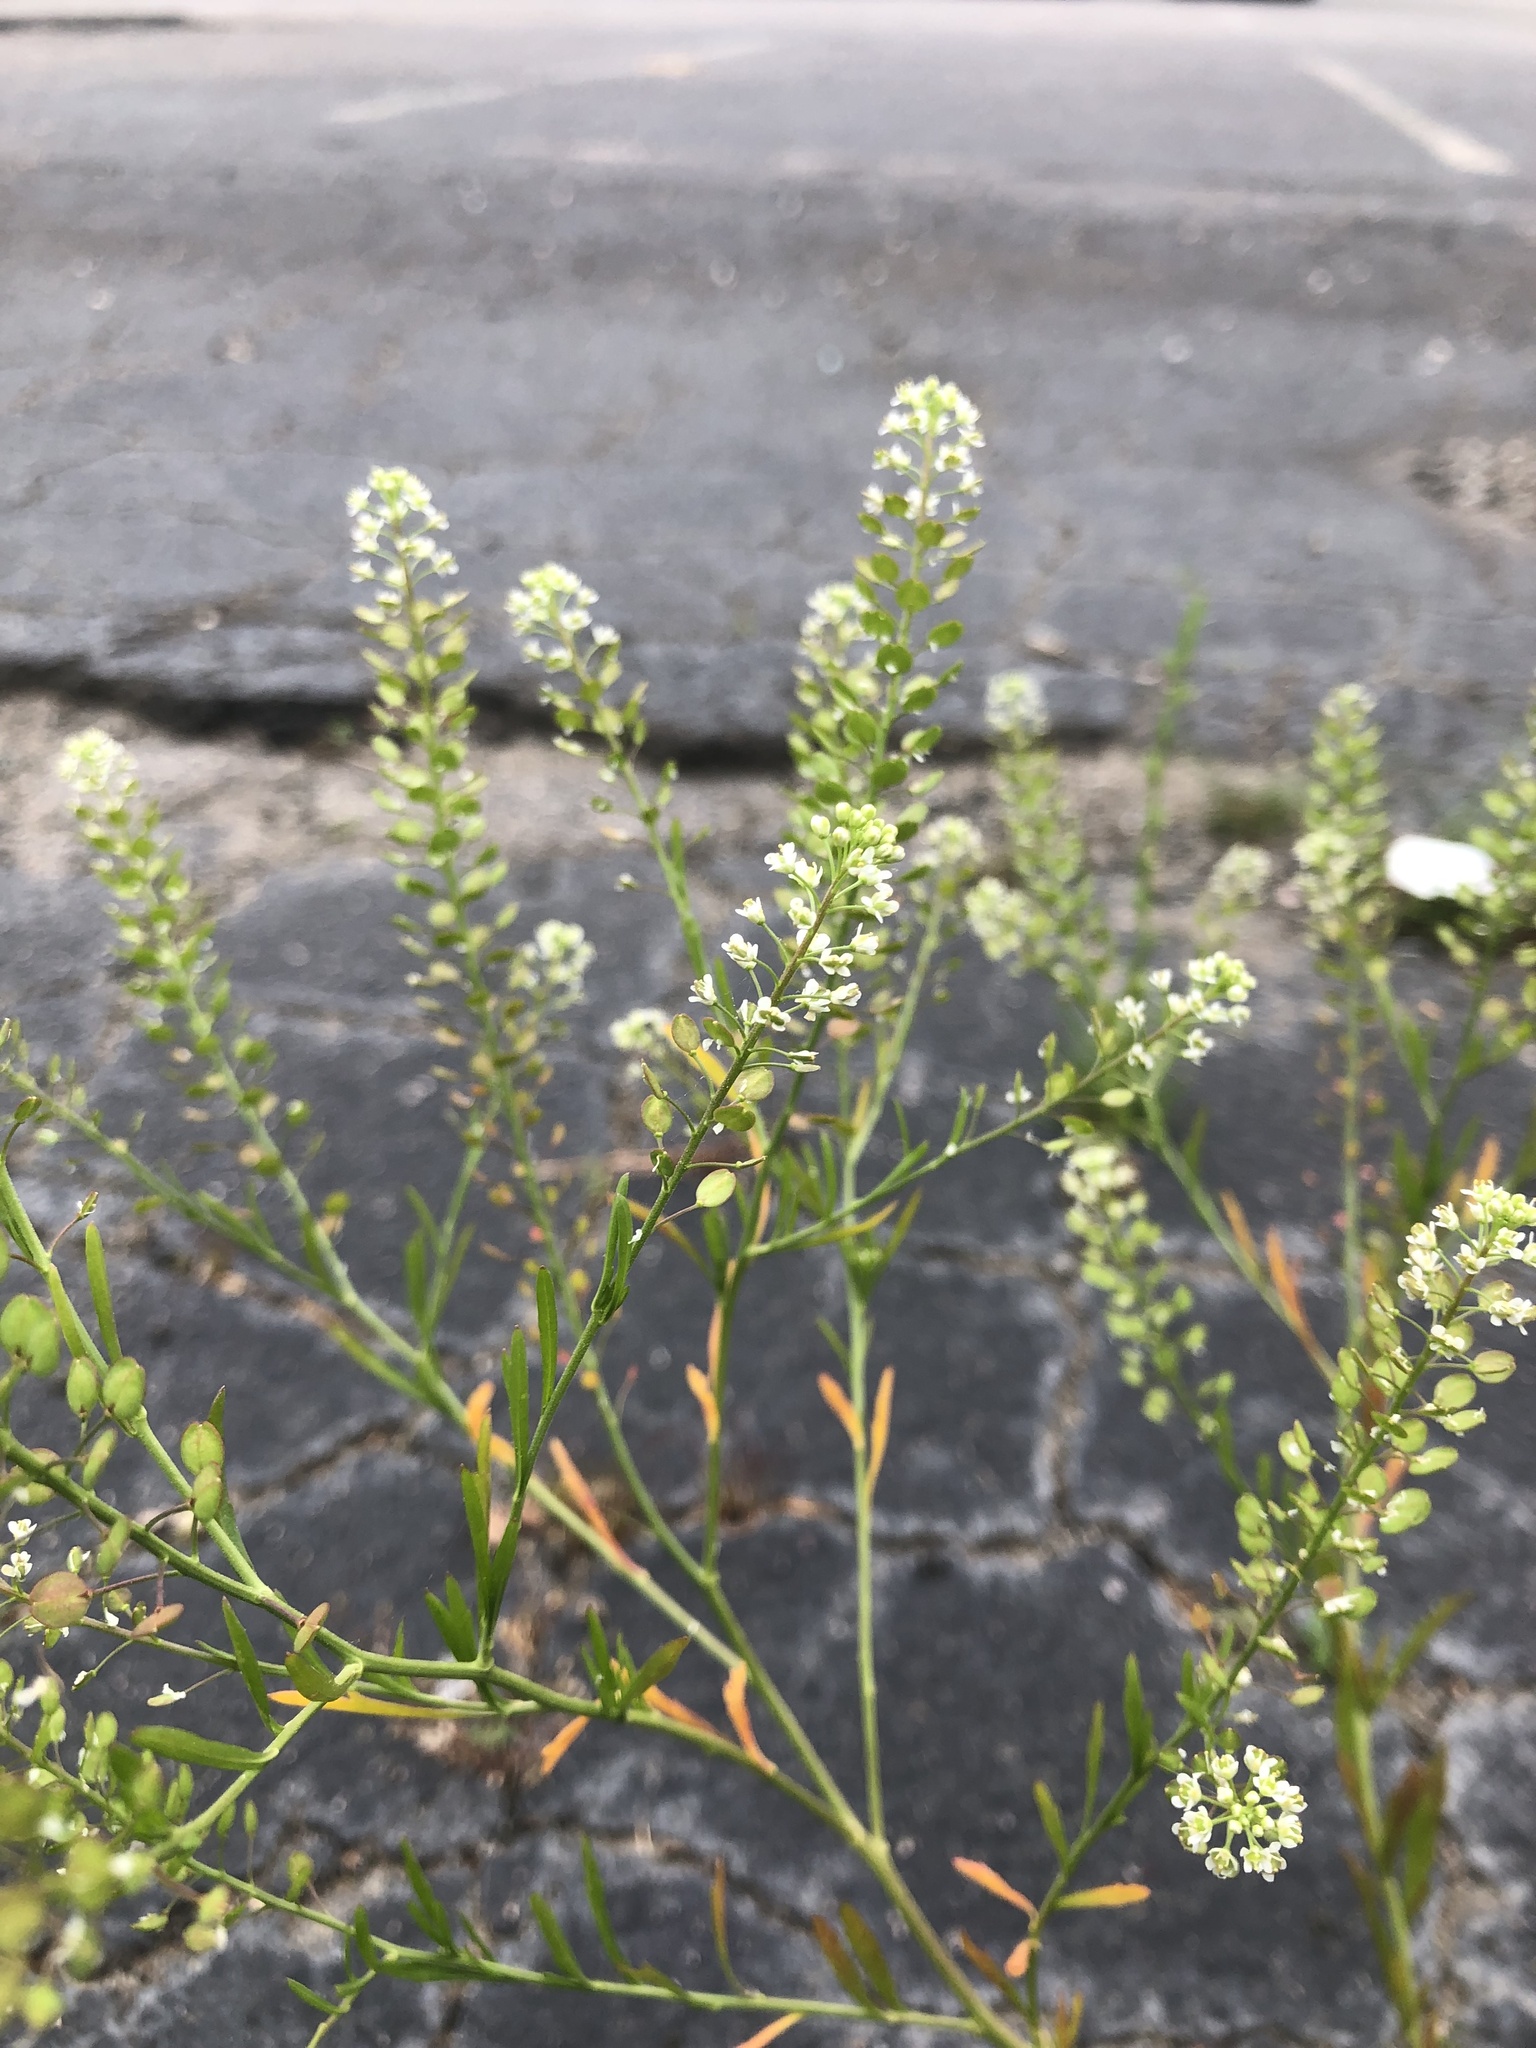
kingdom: Plantae
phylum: Tracheophyta
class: Magnoliopsida
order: Brassicales
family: Brassicaceae
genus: Lepidium
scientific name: Lepidium virginicum
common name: Least pepperwort
